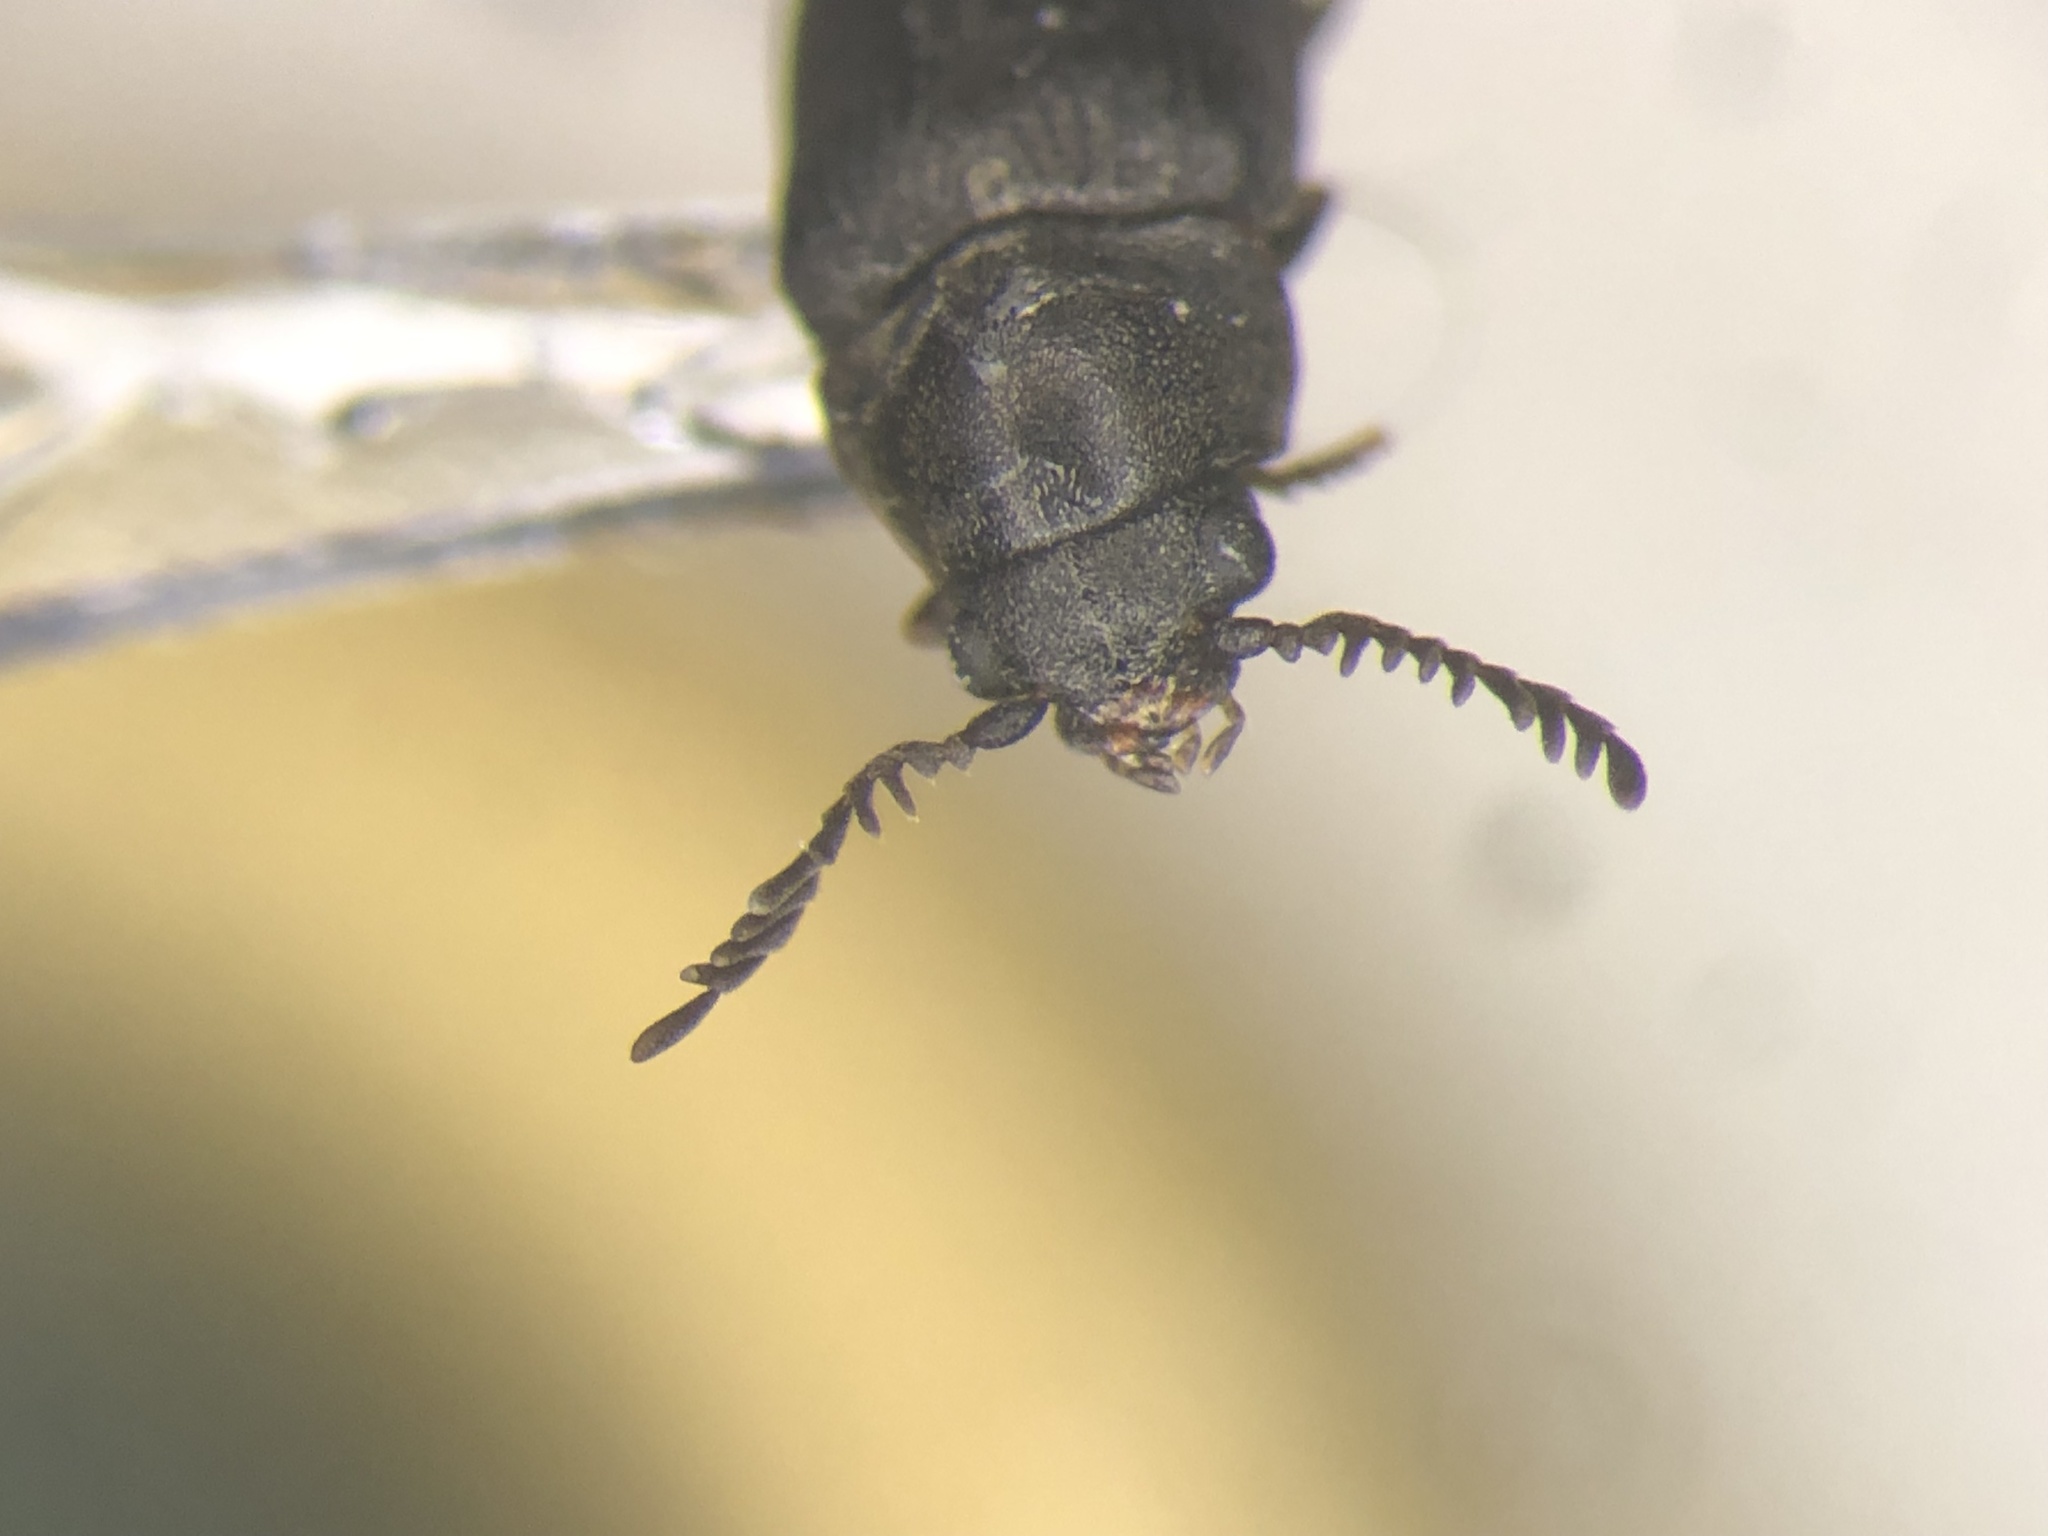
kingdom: Animalia
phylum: Arthropoda
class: Insecta
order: Coleoptera
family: Anobiidae
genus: Xyletinus
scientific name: Xyletinus lugubris
